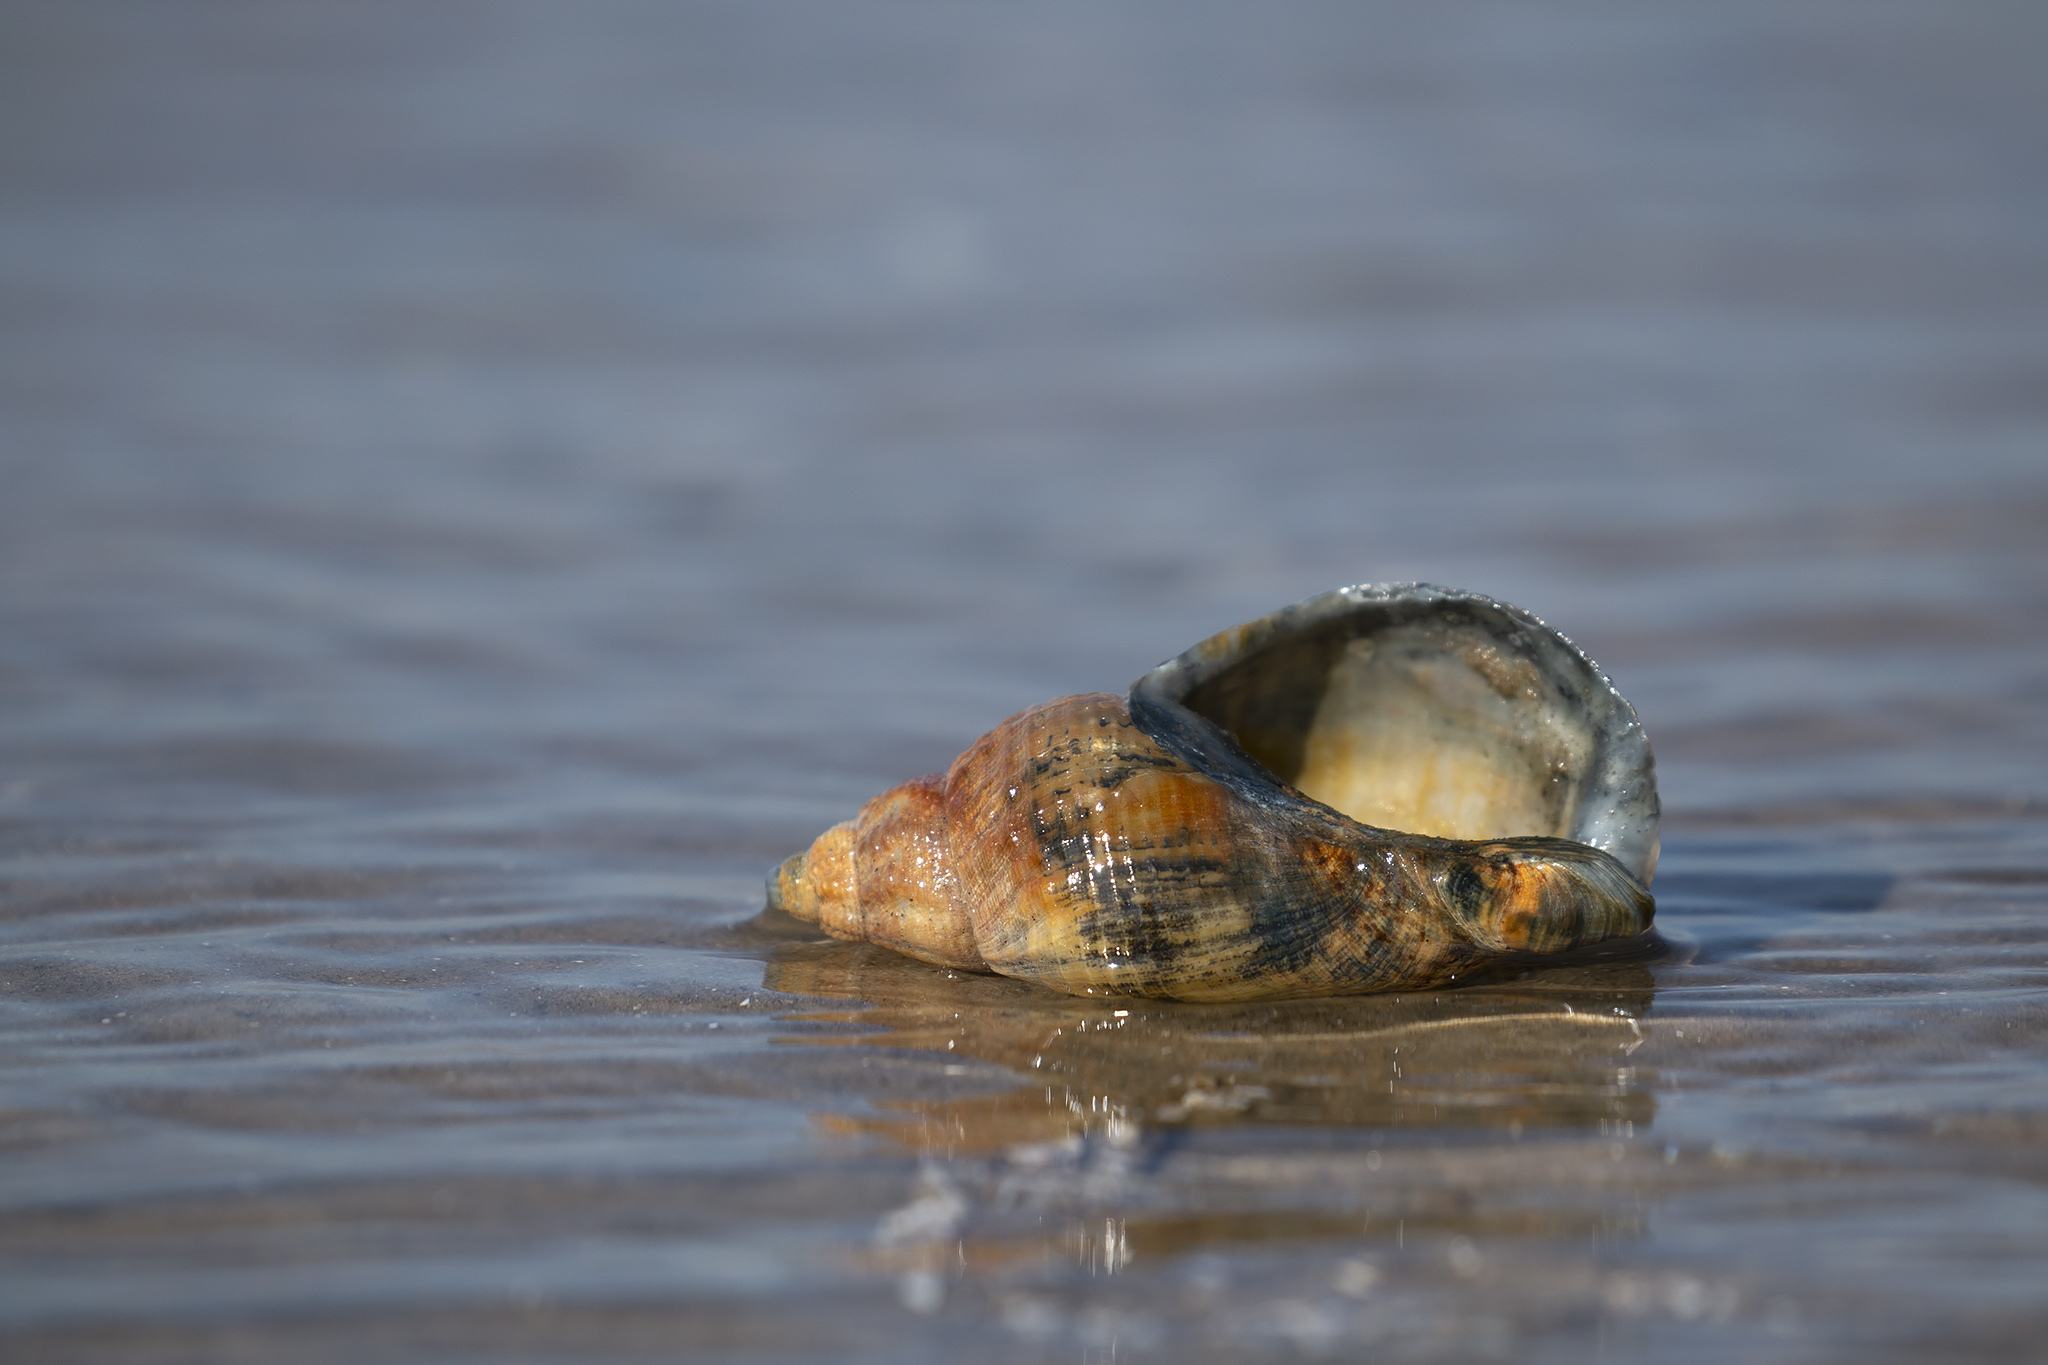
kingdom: Animalia
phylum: Mollusca
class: Gastropoda
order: Neogastropoda
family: Buccinidae
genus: Buccinum
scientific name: Buccinum undatum
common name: Common whelk
